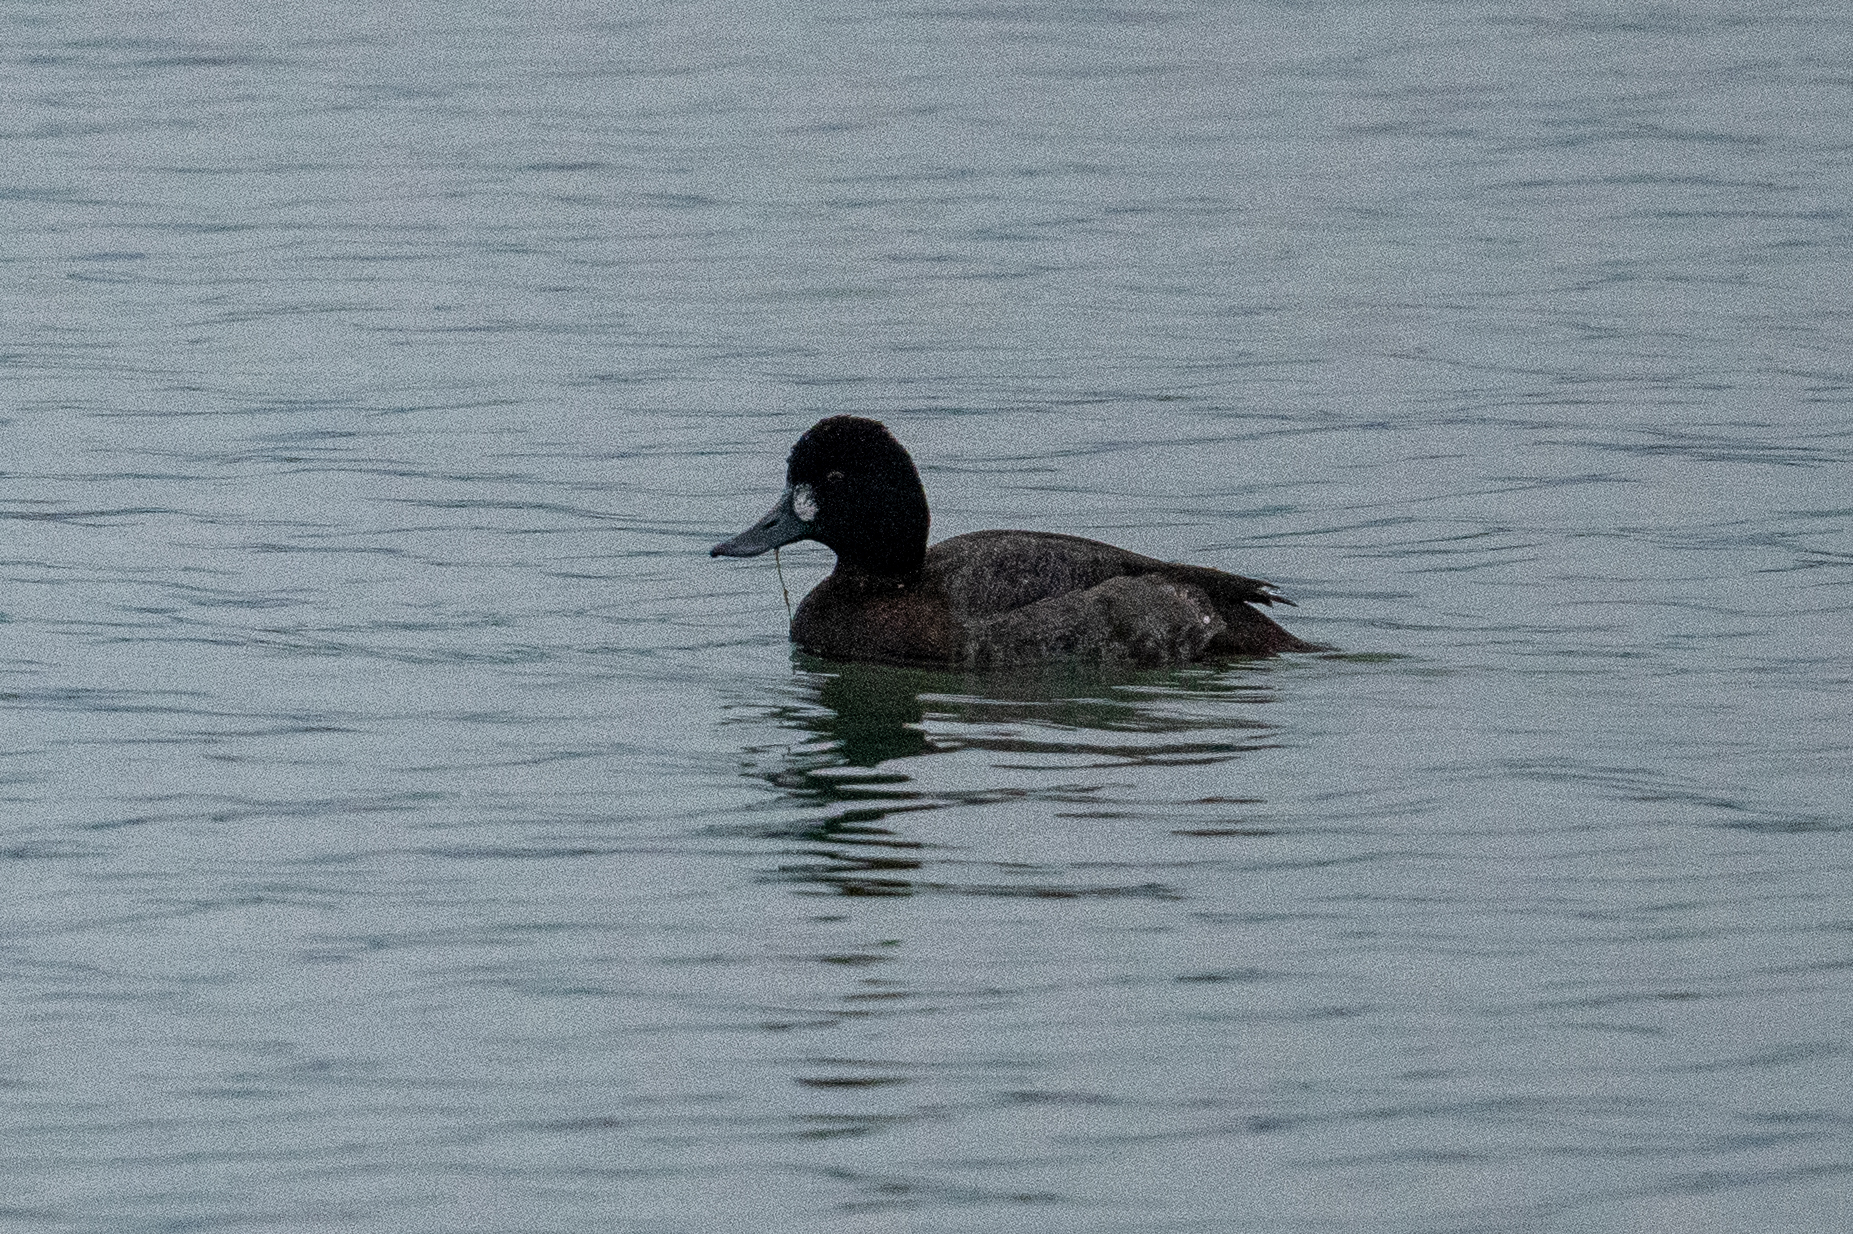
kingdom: Animalia
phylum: Chordata
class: Aves
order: Anseriformes
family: Anatidae
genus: Aythya
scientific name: Aythya affinis
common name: Lesser scaup
